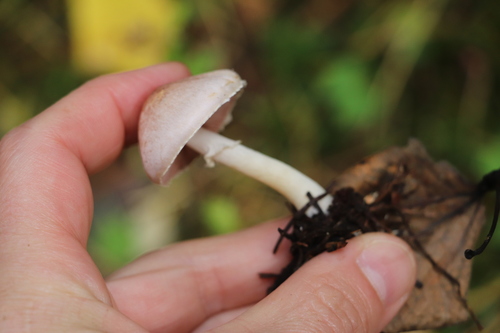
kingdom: Fungi
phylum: Basidiomycota
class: Agaricomycetes
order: Agaricales
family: Agaricaceae
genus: Agaricus
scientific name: Agaricus semotus
